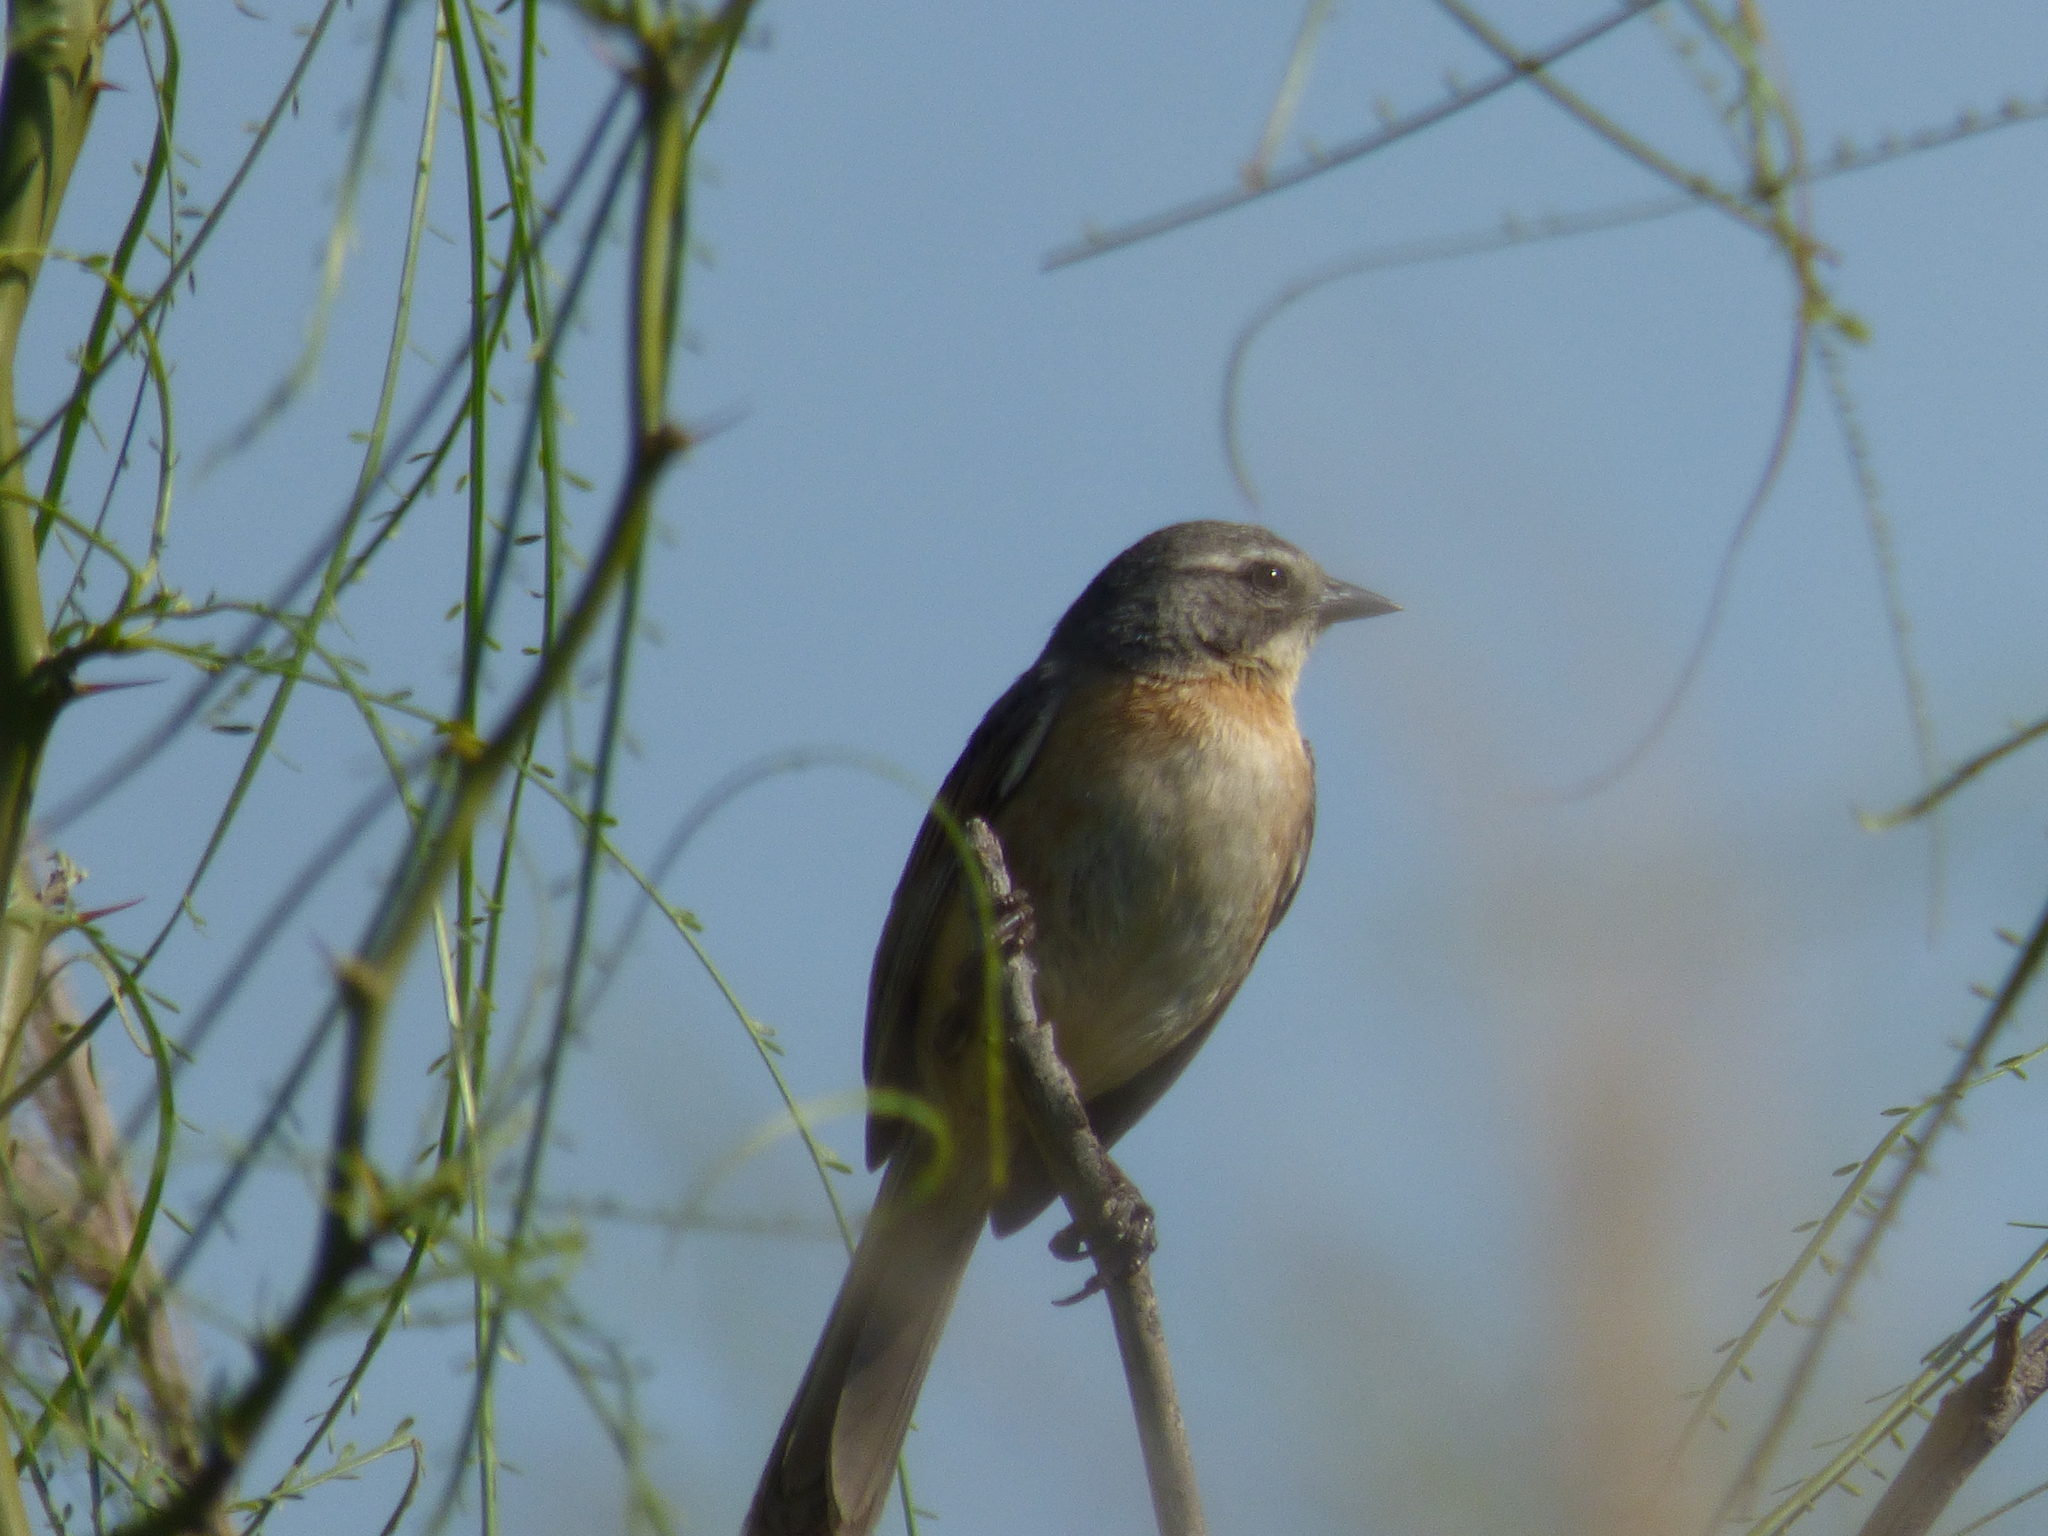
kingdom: Animalia
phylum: Chordata
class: Aves
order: Passeriformes
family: Thraupidae
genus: Donacospiza
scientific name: Donacospiza albifrons
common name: Long-tailed reed finch
